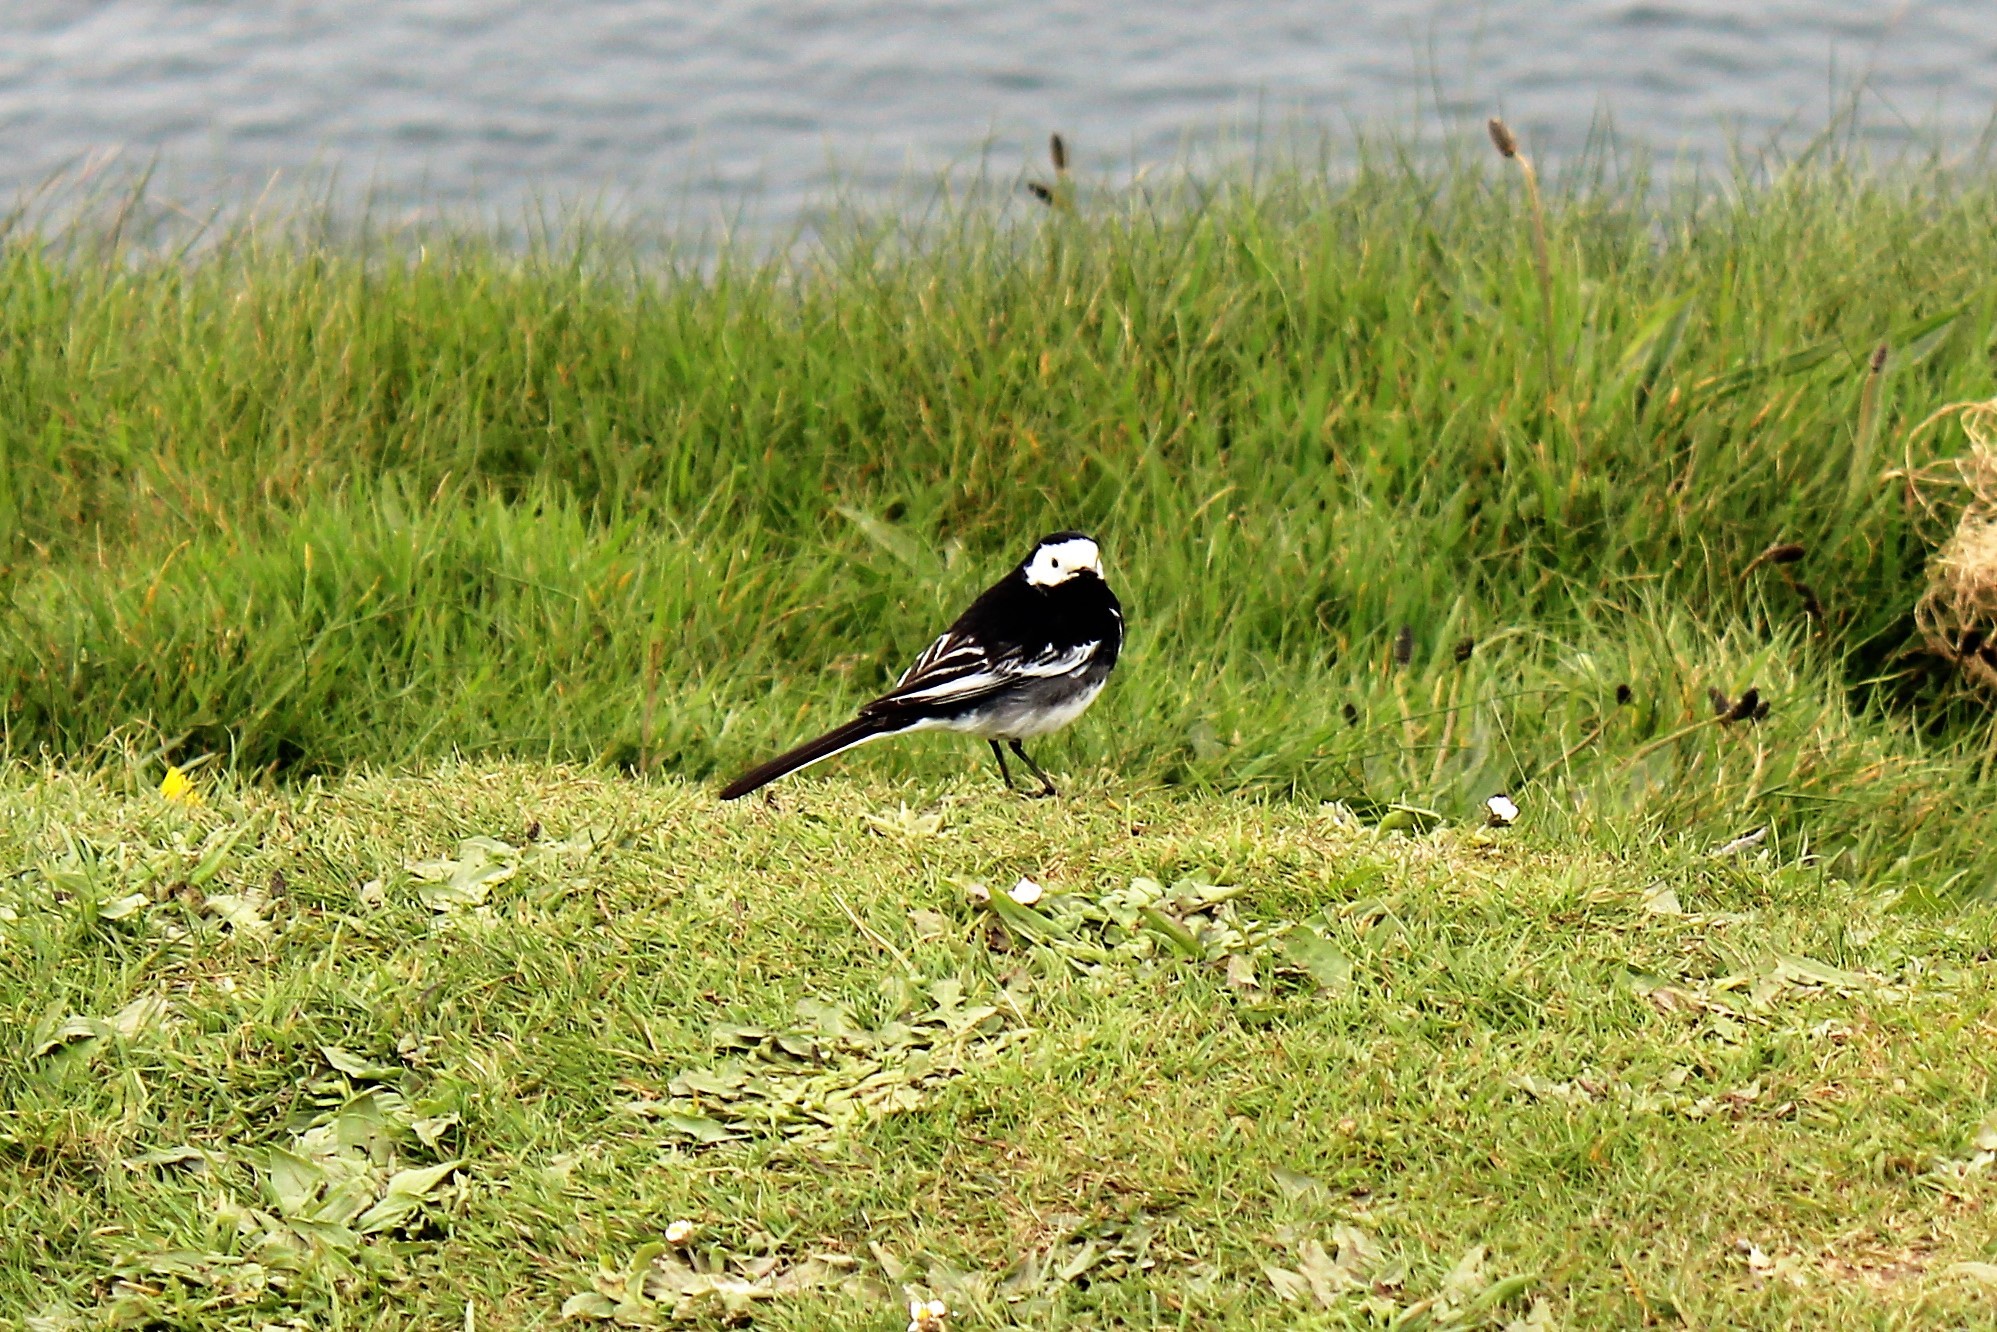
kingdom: Animalia
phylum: Chordata
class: Aves
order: Passeriformes
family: Motacillidae
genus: Motacilla
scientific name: Motacilla alba
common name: White wagtail
